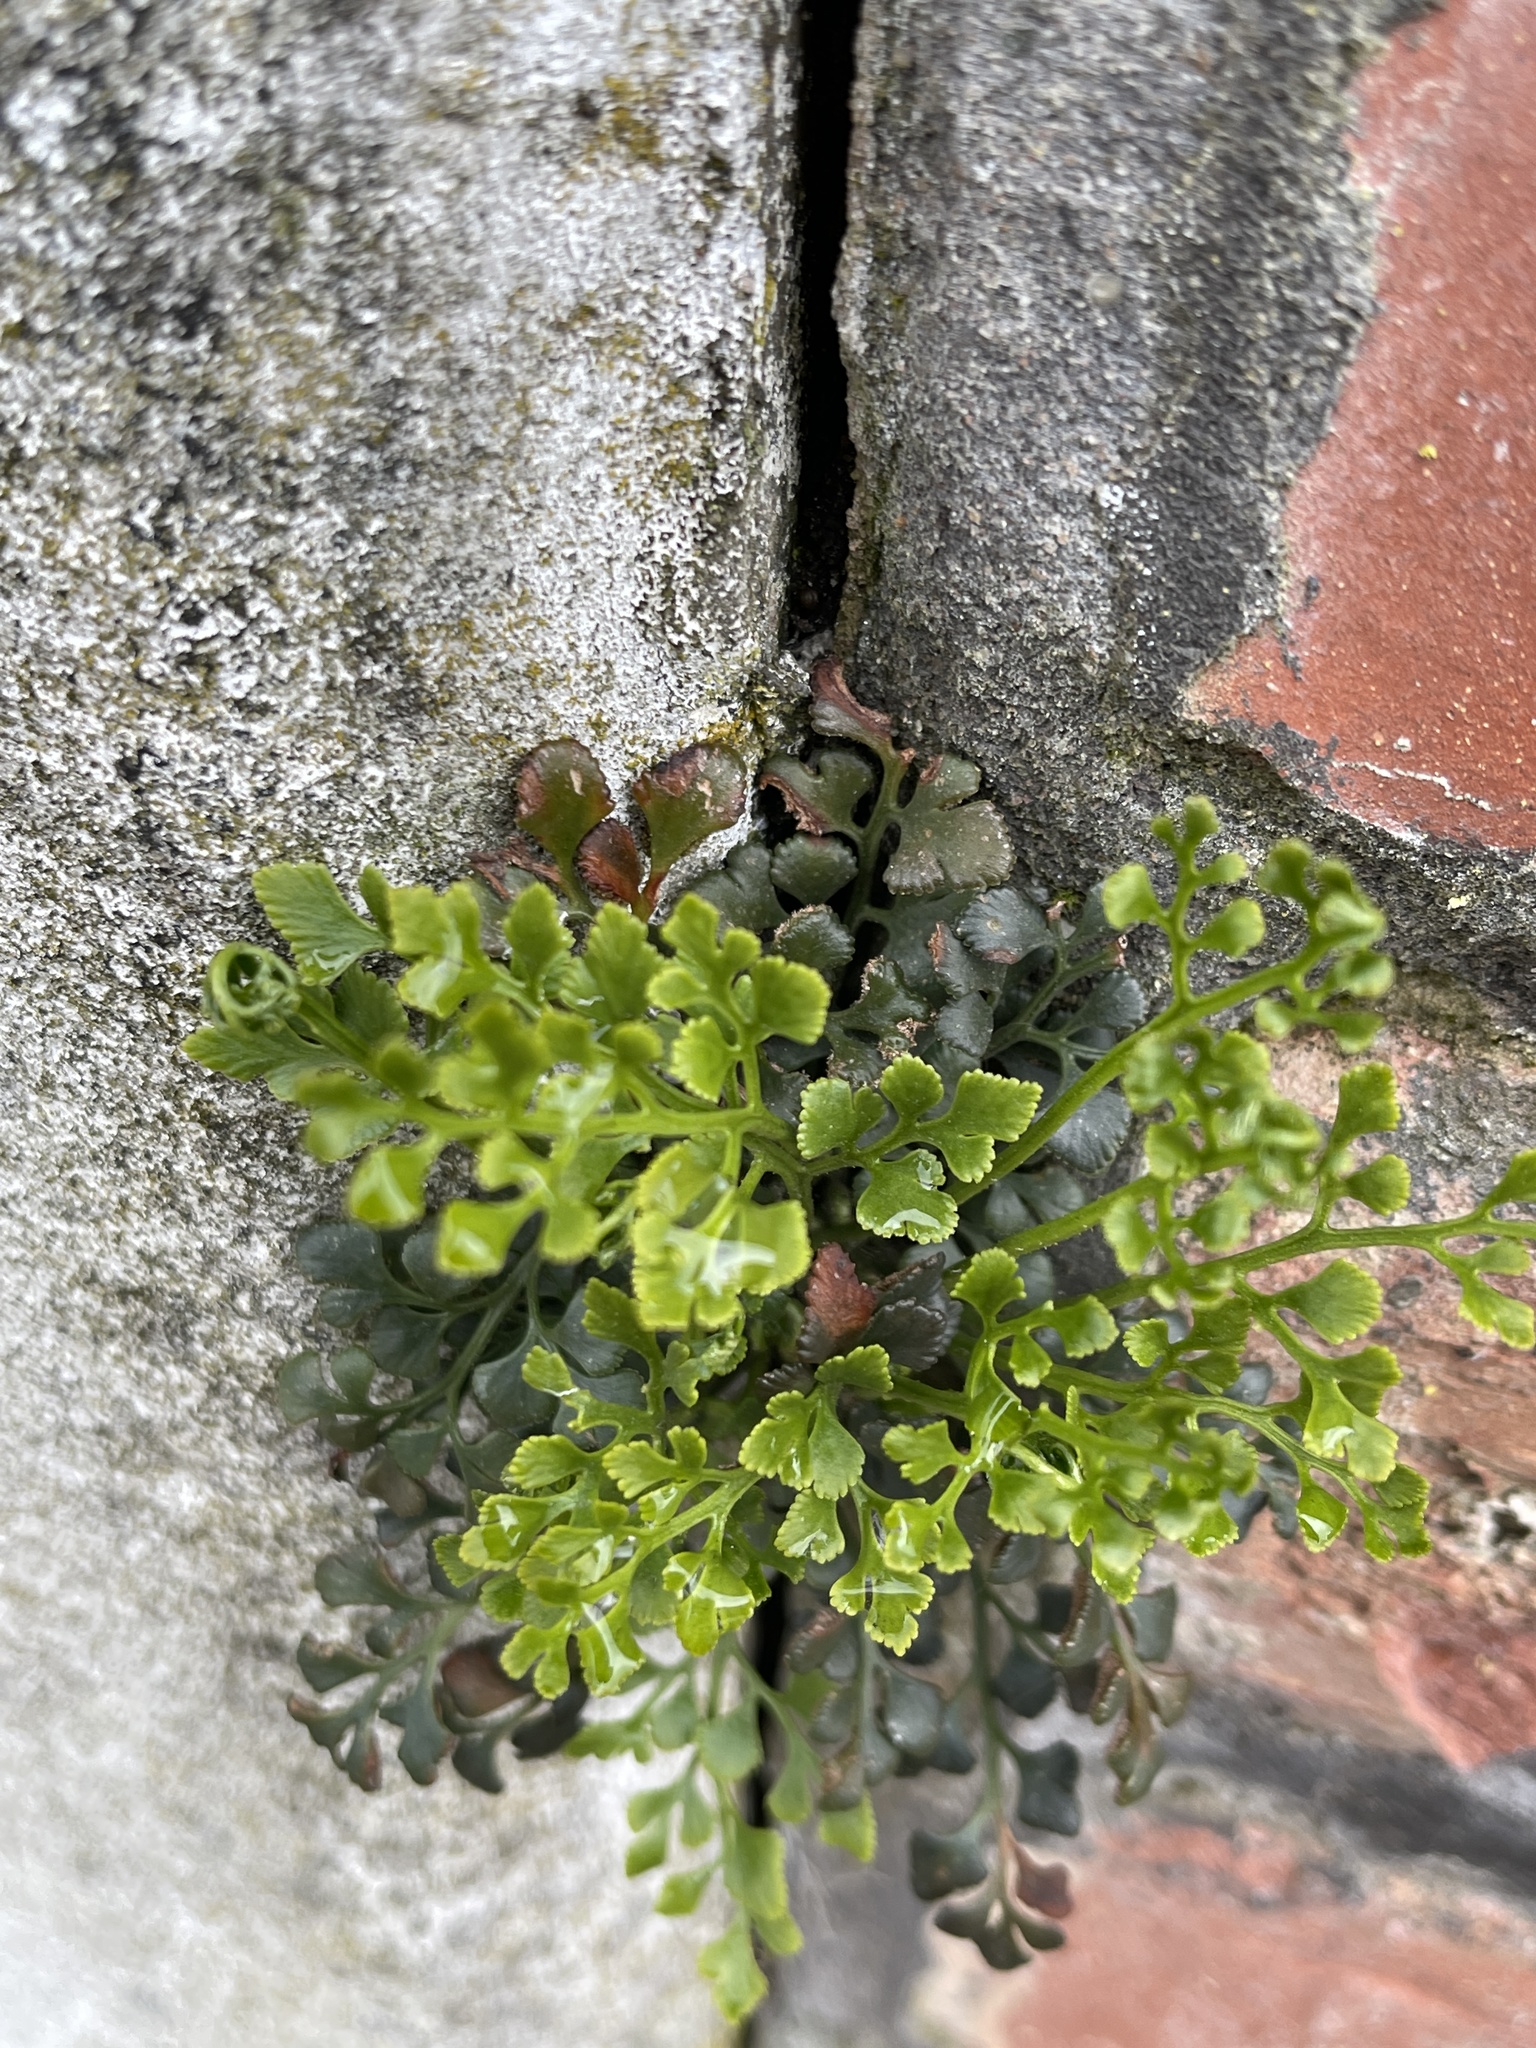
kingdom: Plantae
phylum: Tracheophyta
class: Polypodiopsida
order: Polypodiales
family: Aspleniaceae
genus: Asplenium
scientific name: Asplenium ruta-muraria
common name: Wall-rue
